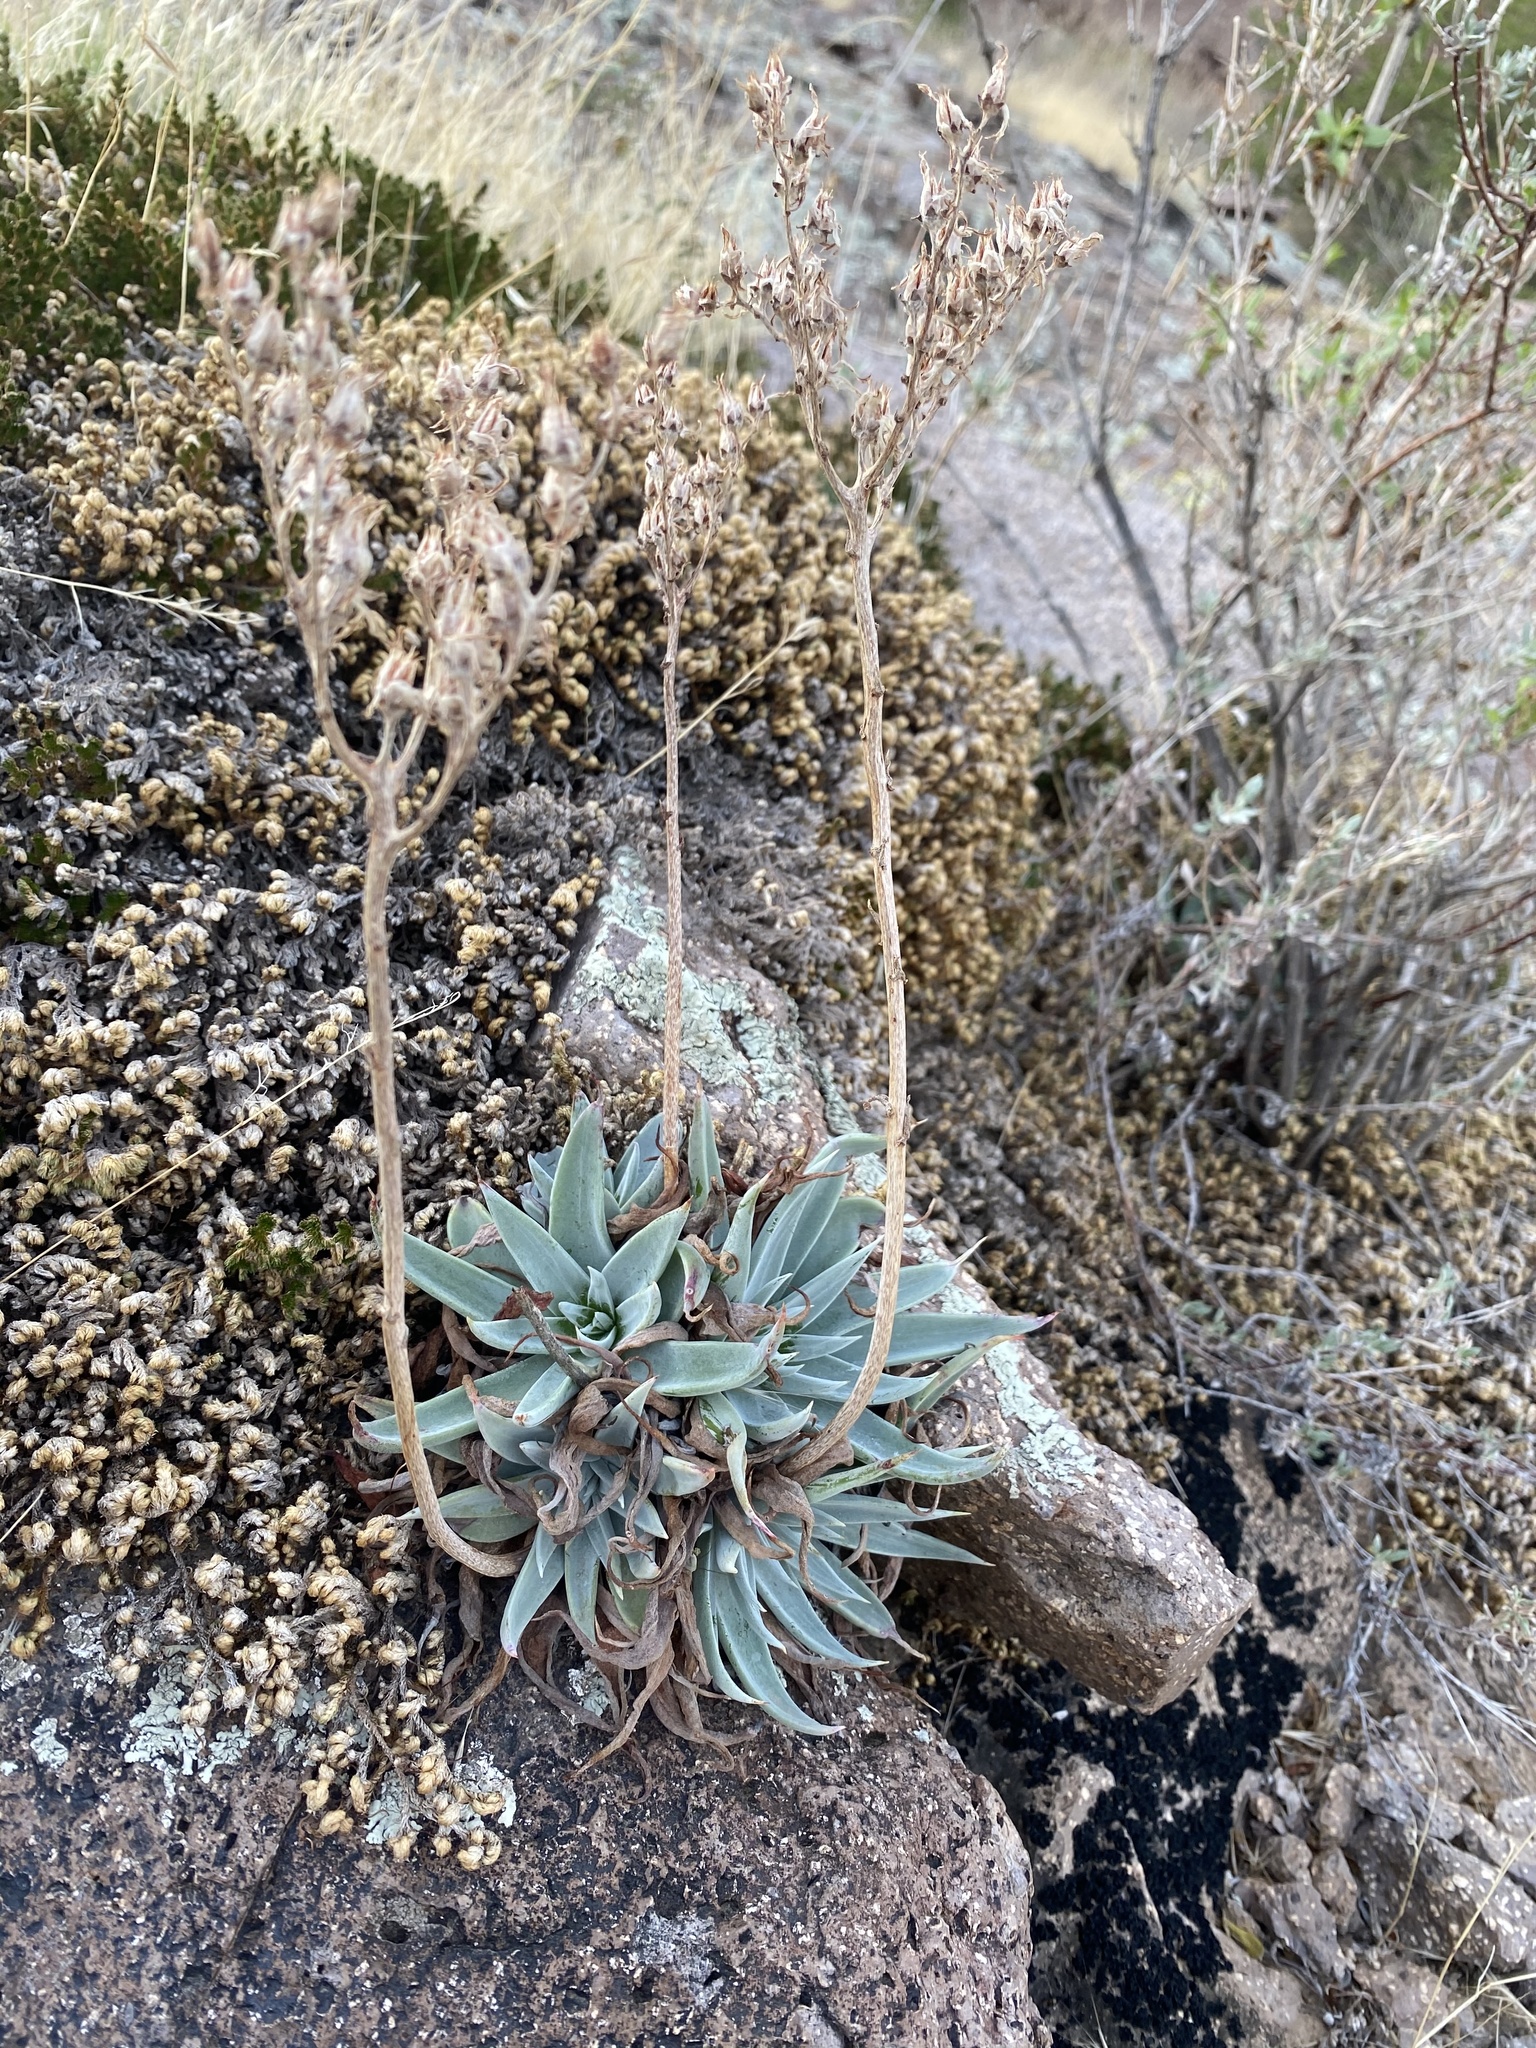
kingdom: Plantae
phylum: Tracheophyta
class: Magnoliopsida
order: Saxifragales
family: Crassulaceae
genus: Dudleya
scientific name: Dudleya collomiae
